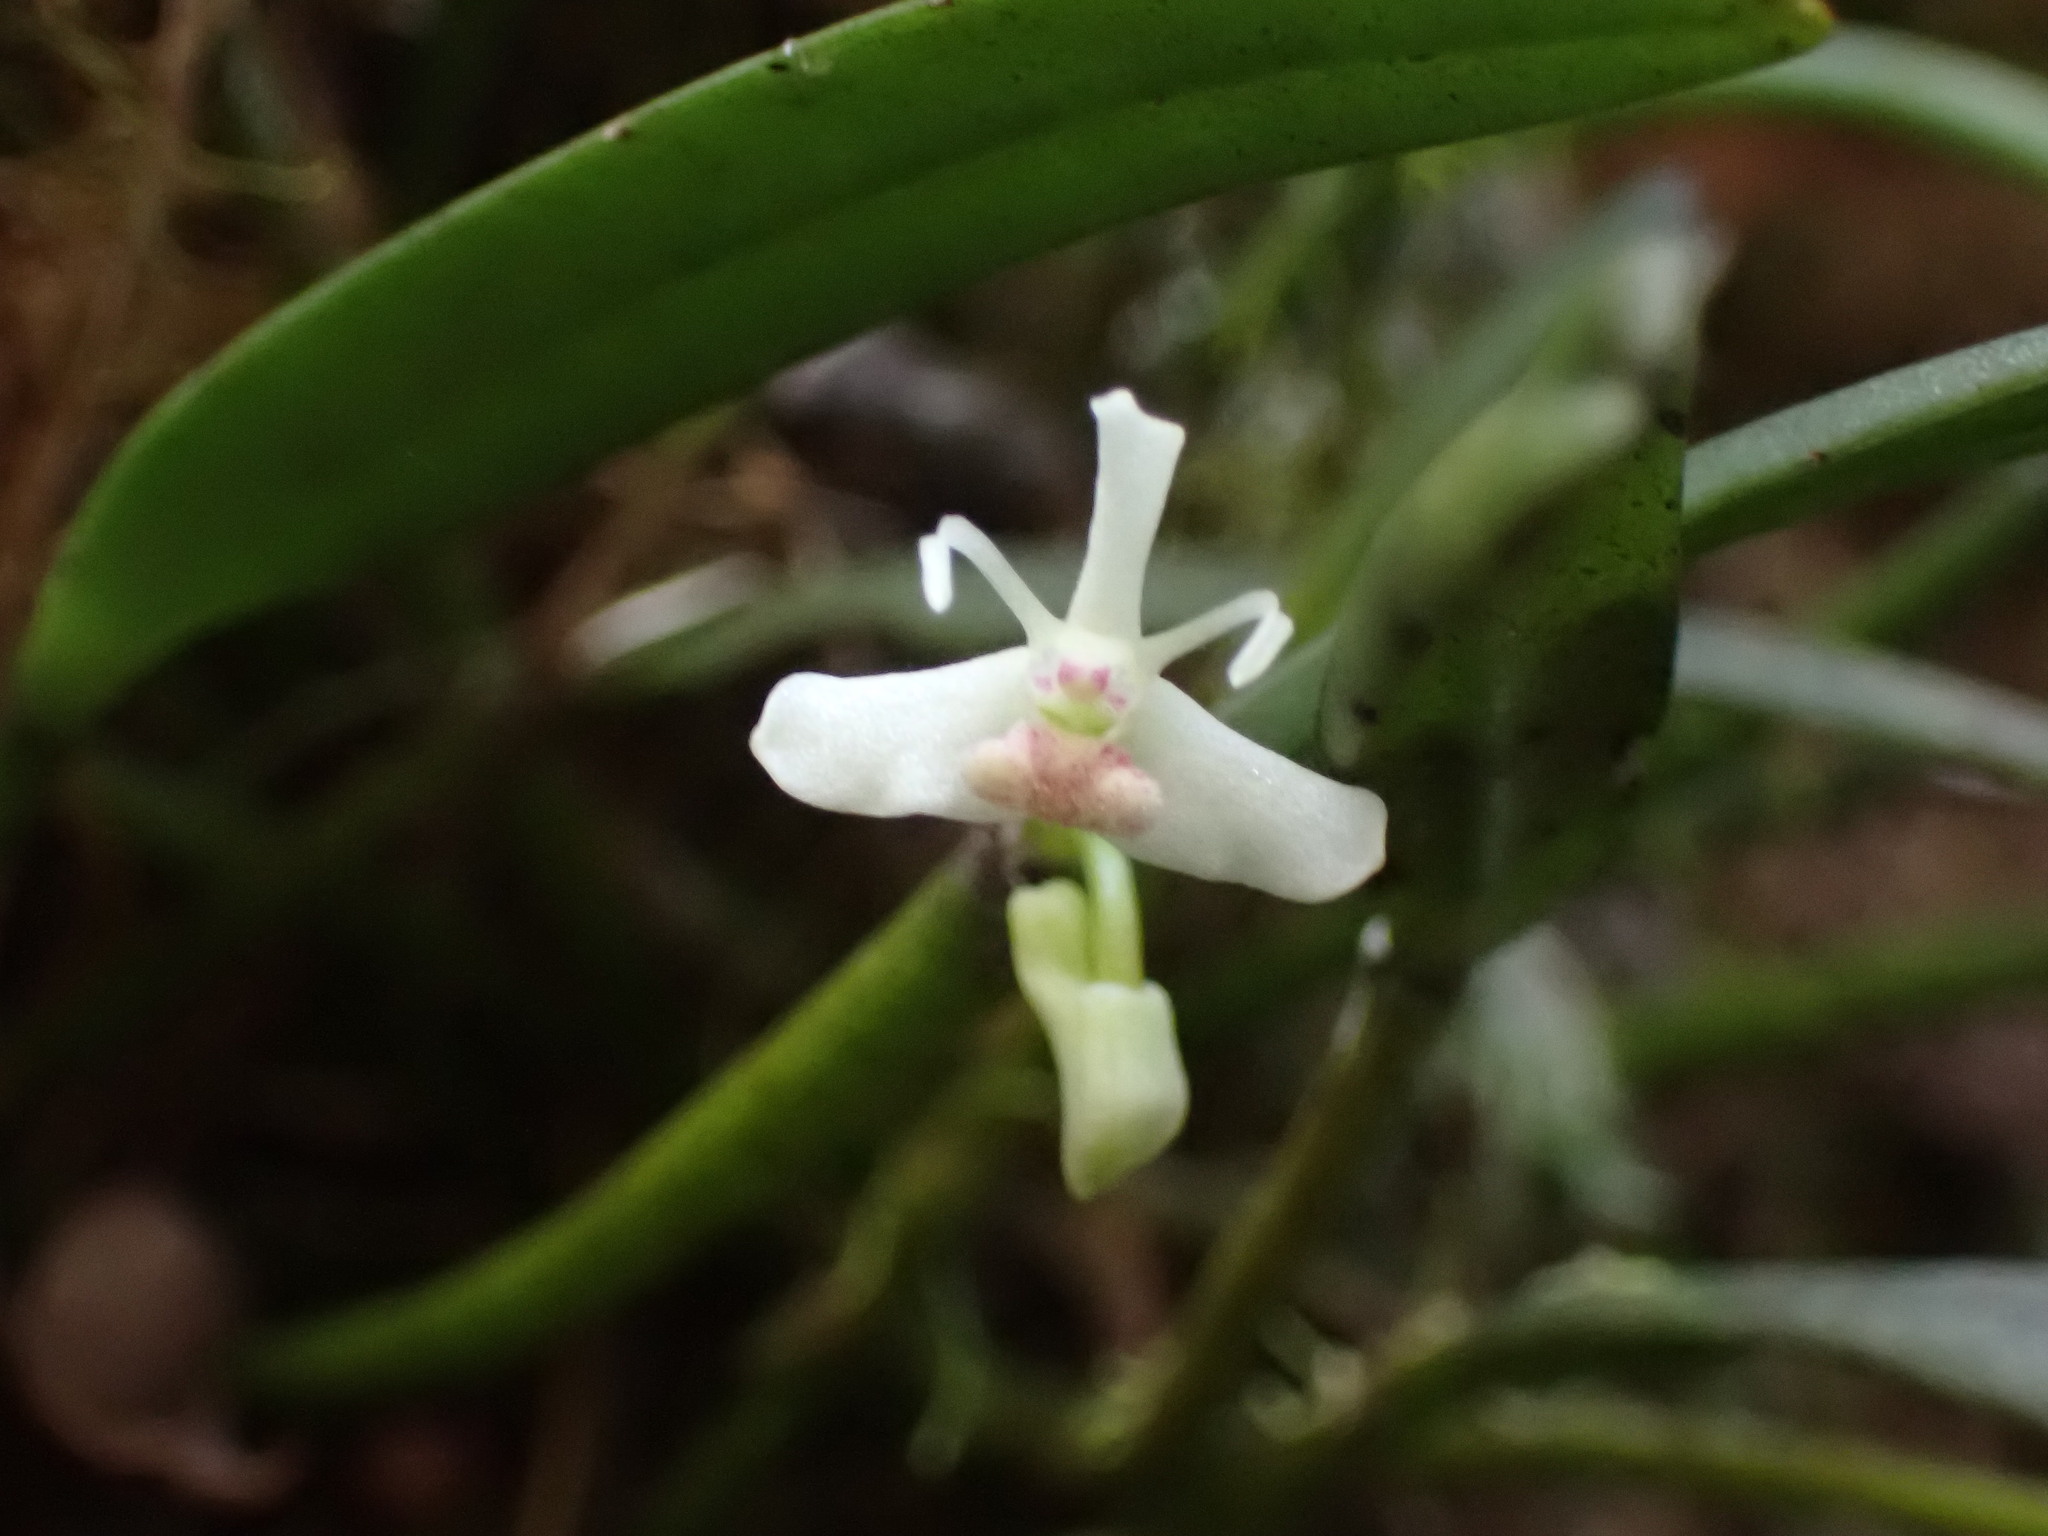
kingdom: Plantae
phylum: Tracheophyta
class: Liliopsida
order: Asparagales
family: Orchidaceae
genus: Dendrobium
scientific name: Dendrobium taylorii
